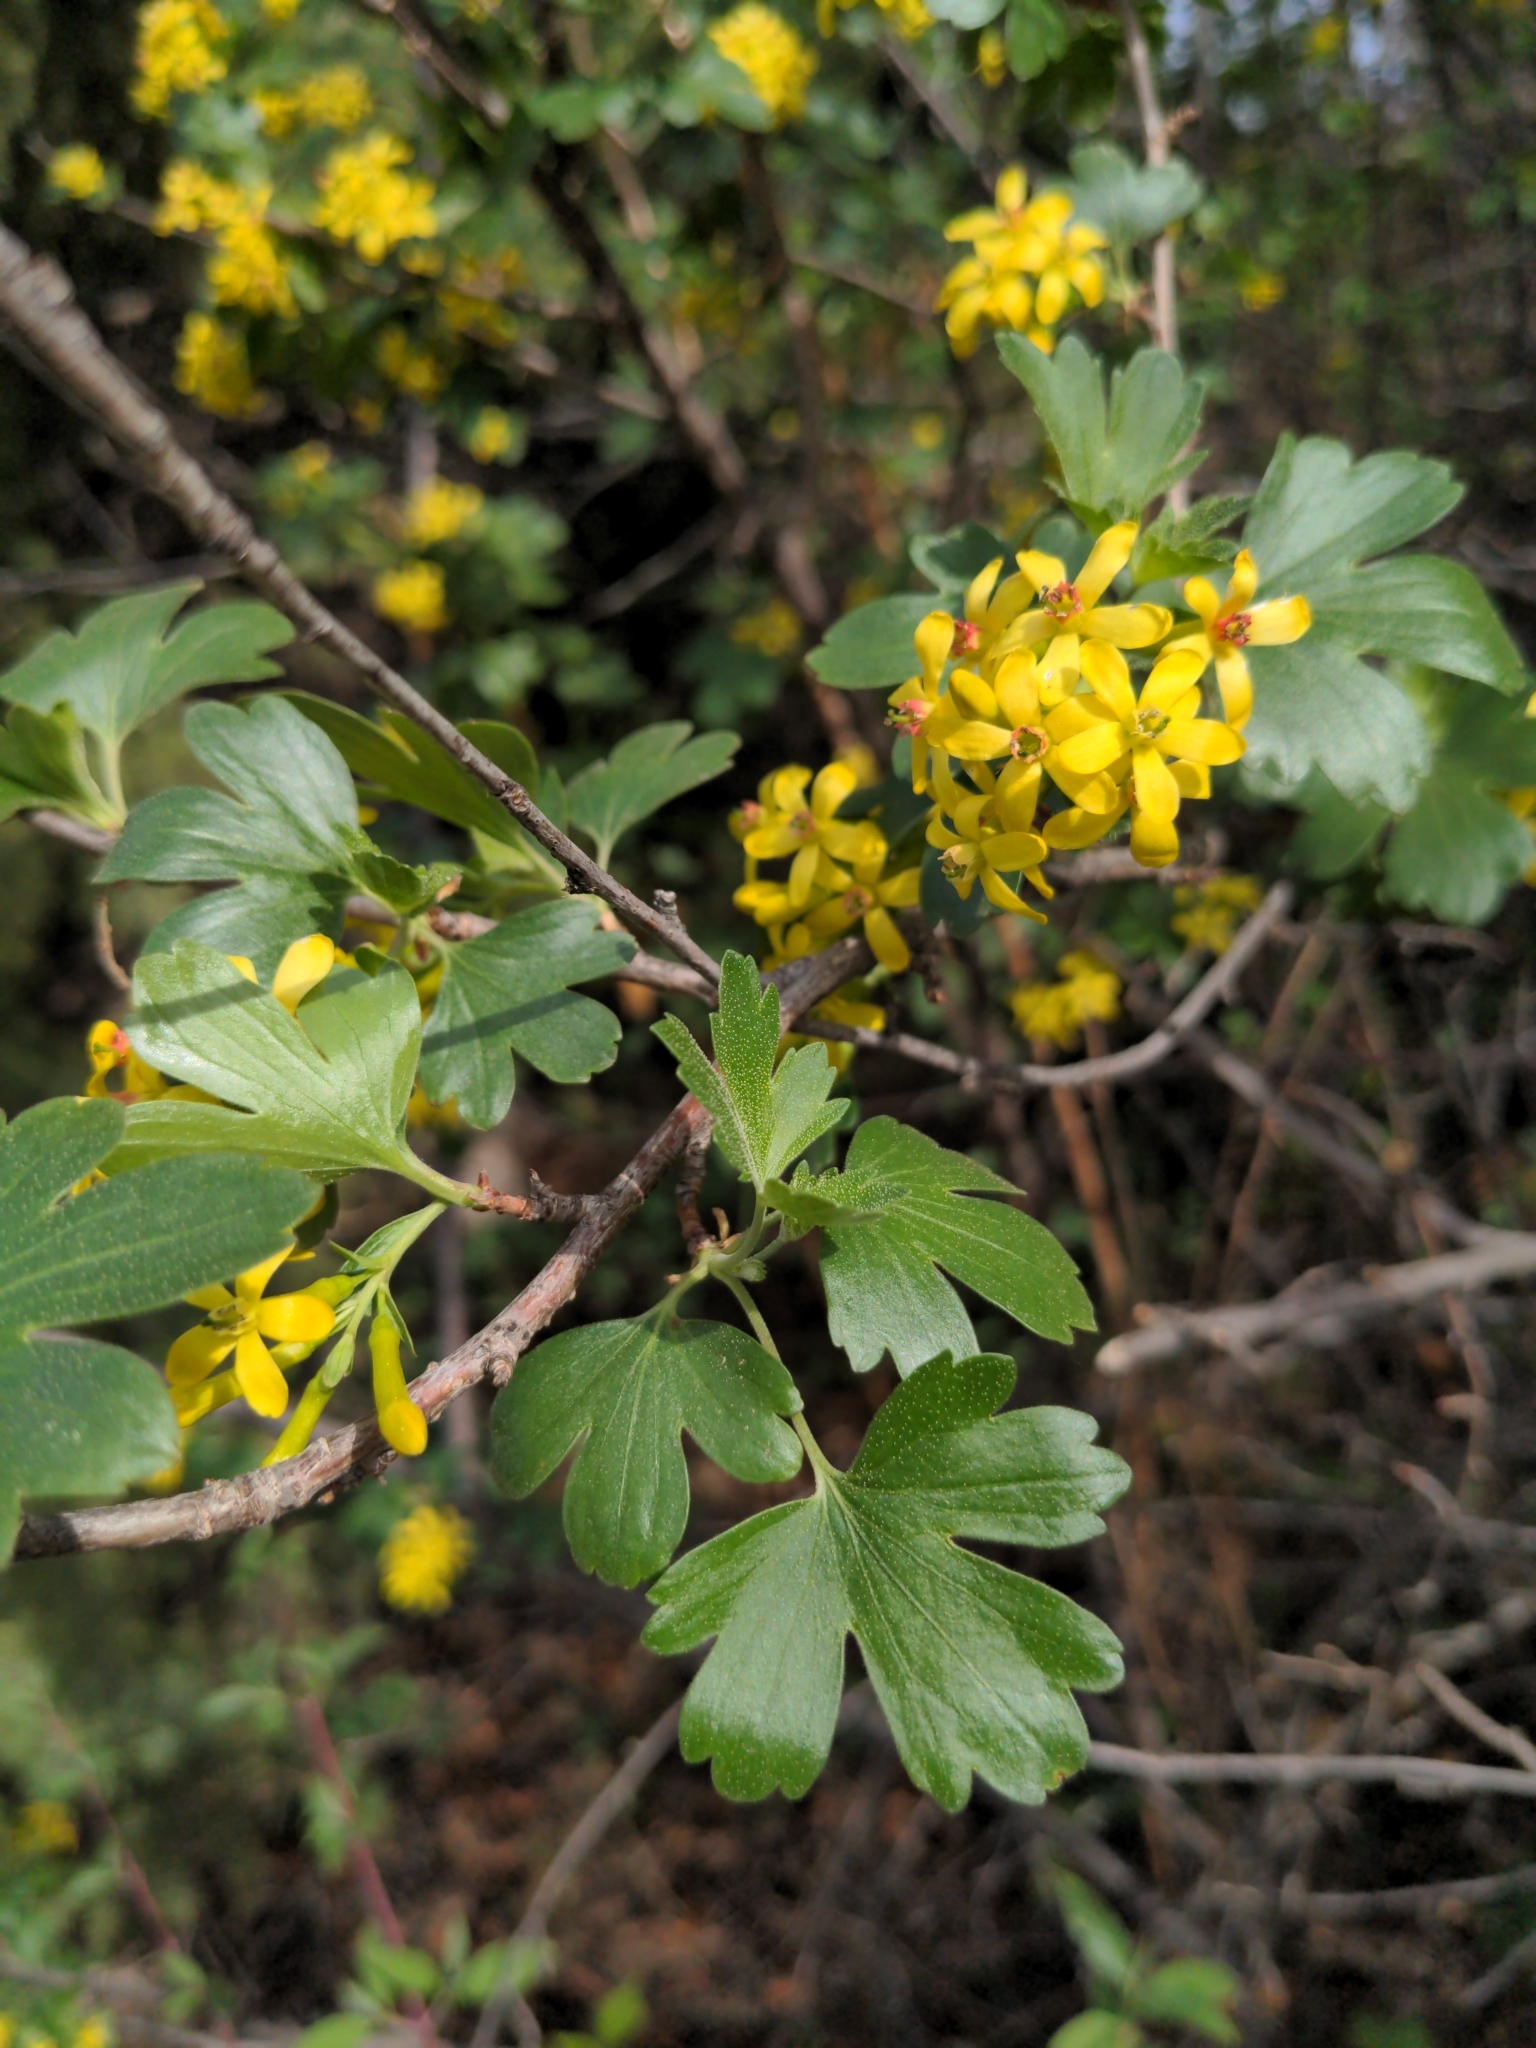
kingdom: Plantae
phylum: Tracheophyta
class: Magnoliopsida
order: Saxifragales
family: Grossulariaceae
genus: Ribes
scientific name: Ribes aureum
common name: Golden currant
